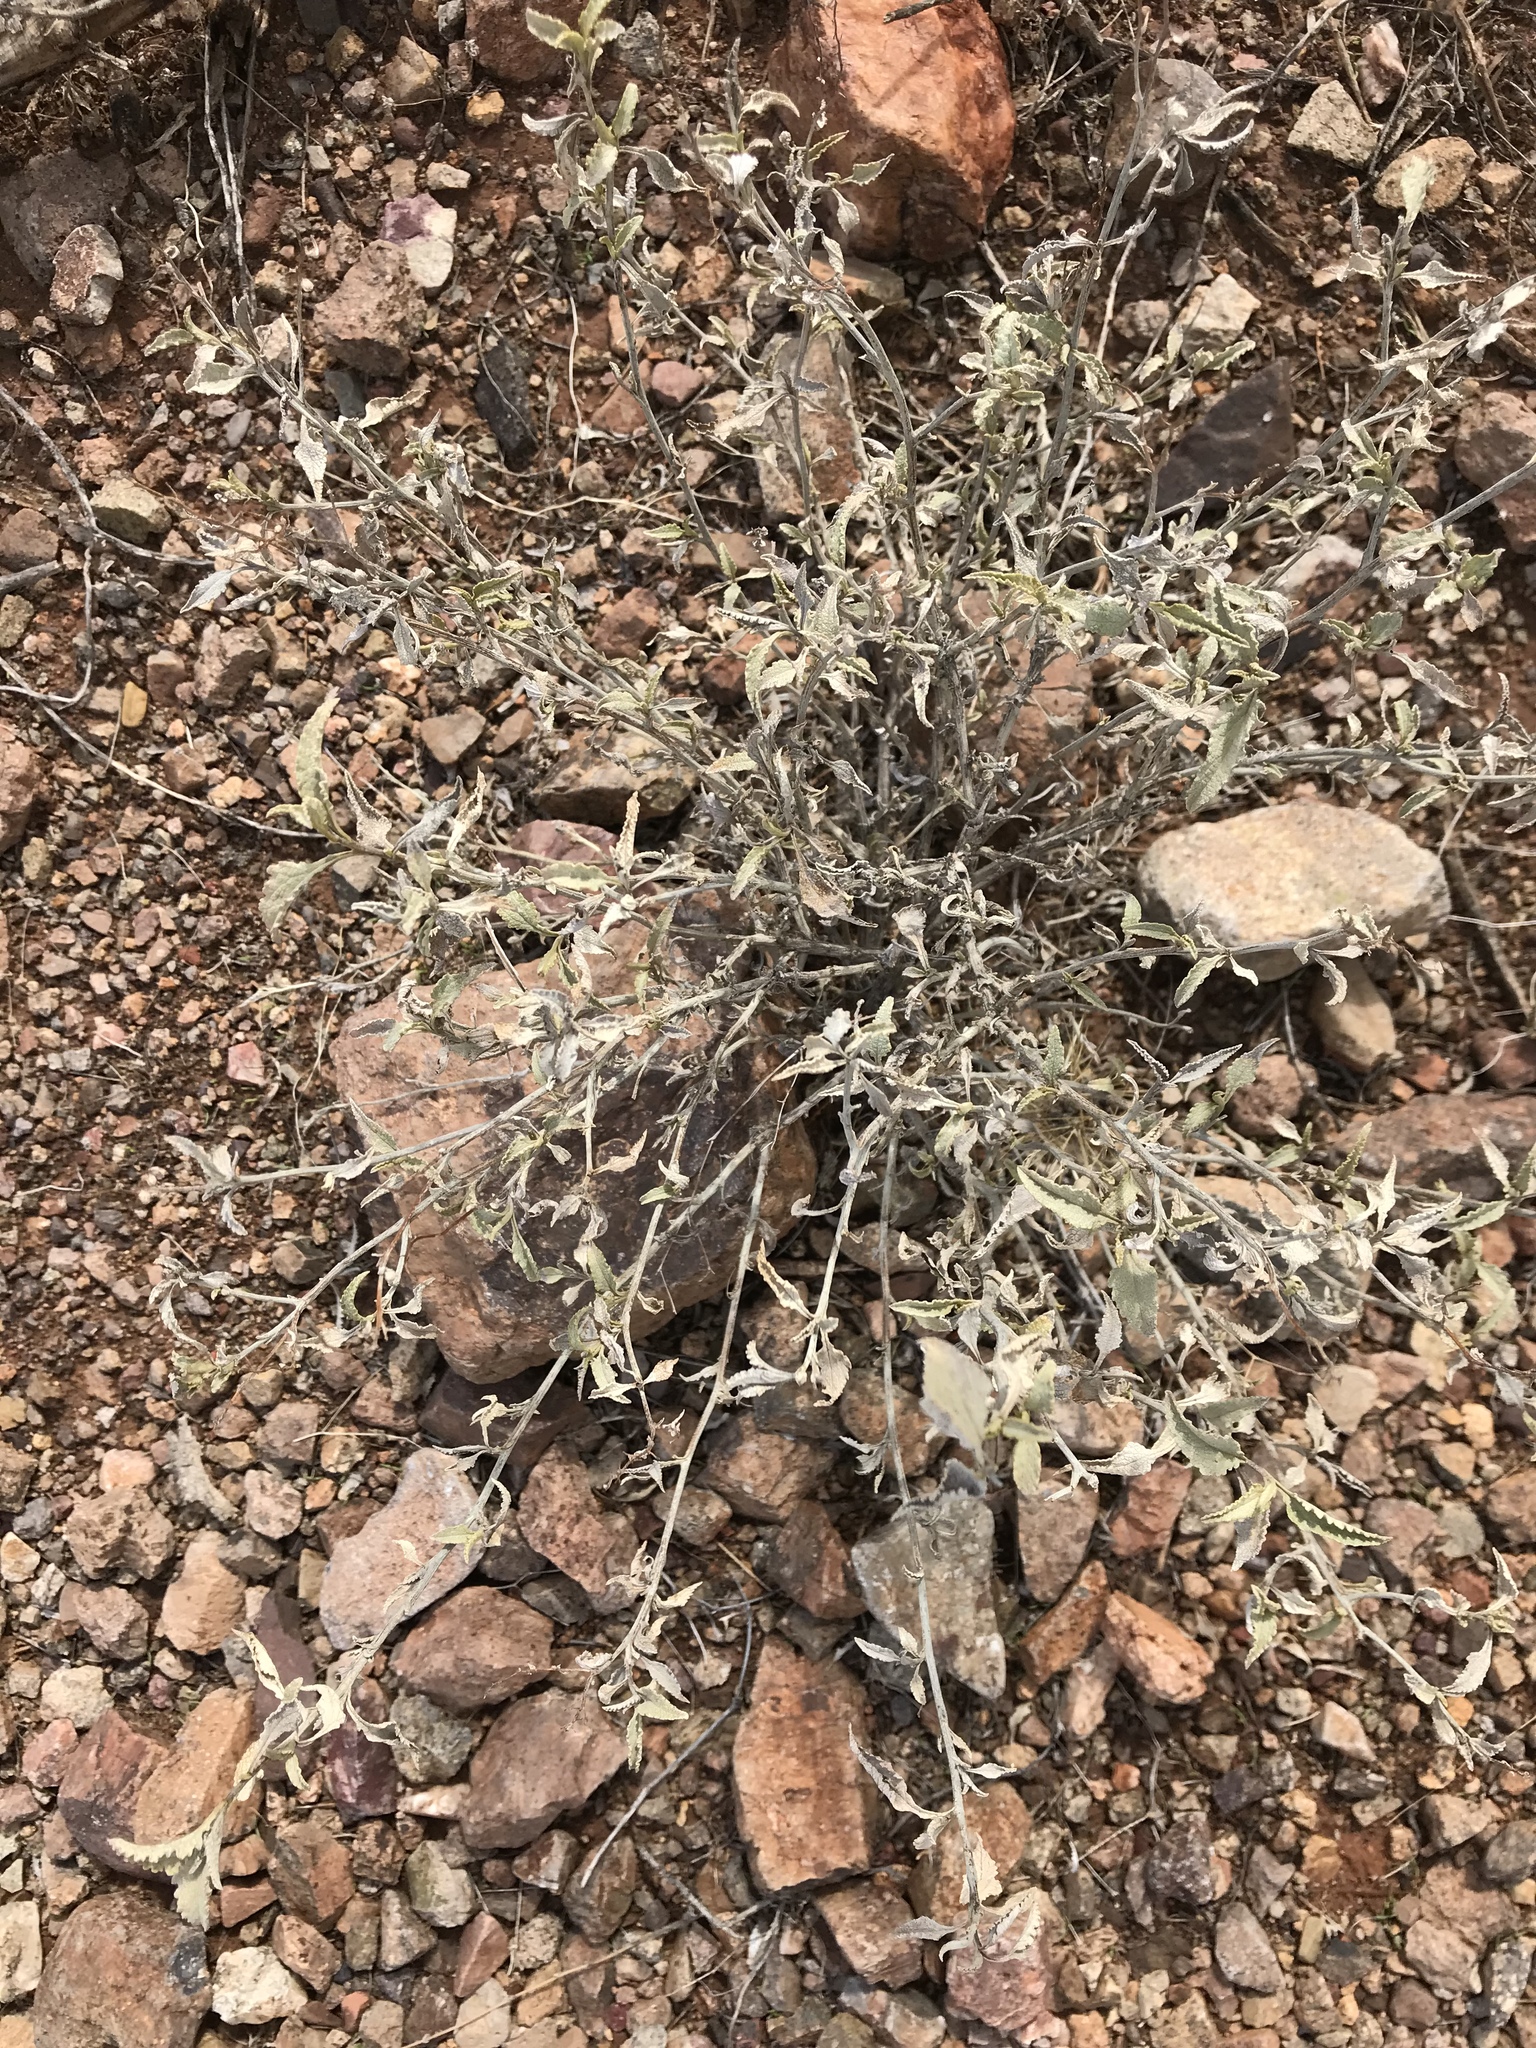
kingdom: Plantae
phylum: Tracheophyta
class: Magnoliopsida
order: Asterales
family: Asteraceae
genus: Ambrosia
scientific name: Ambrosia deltoidea
